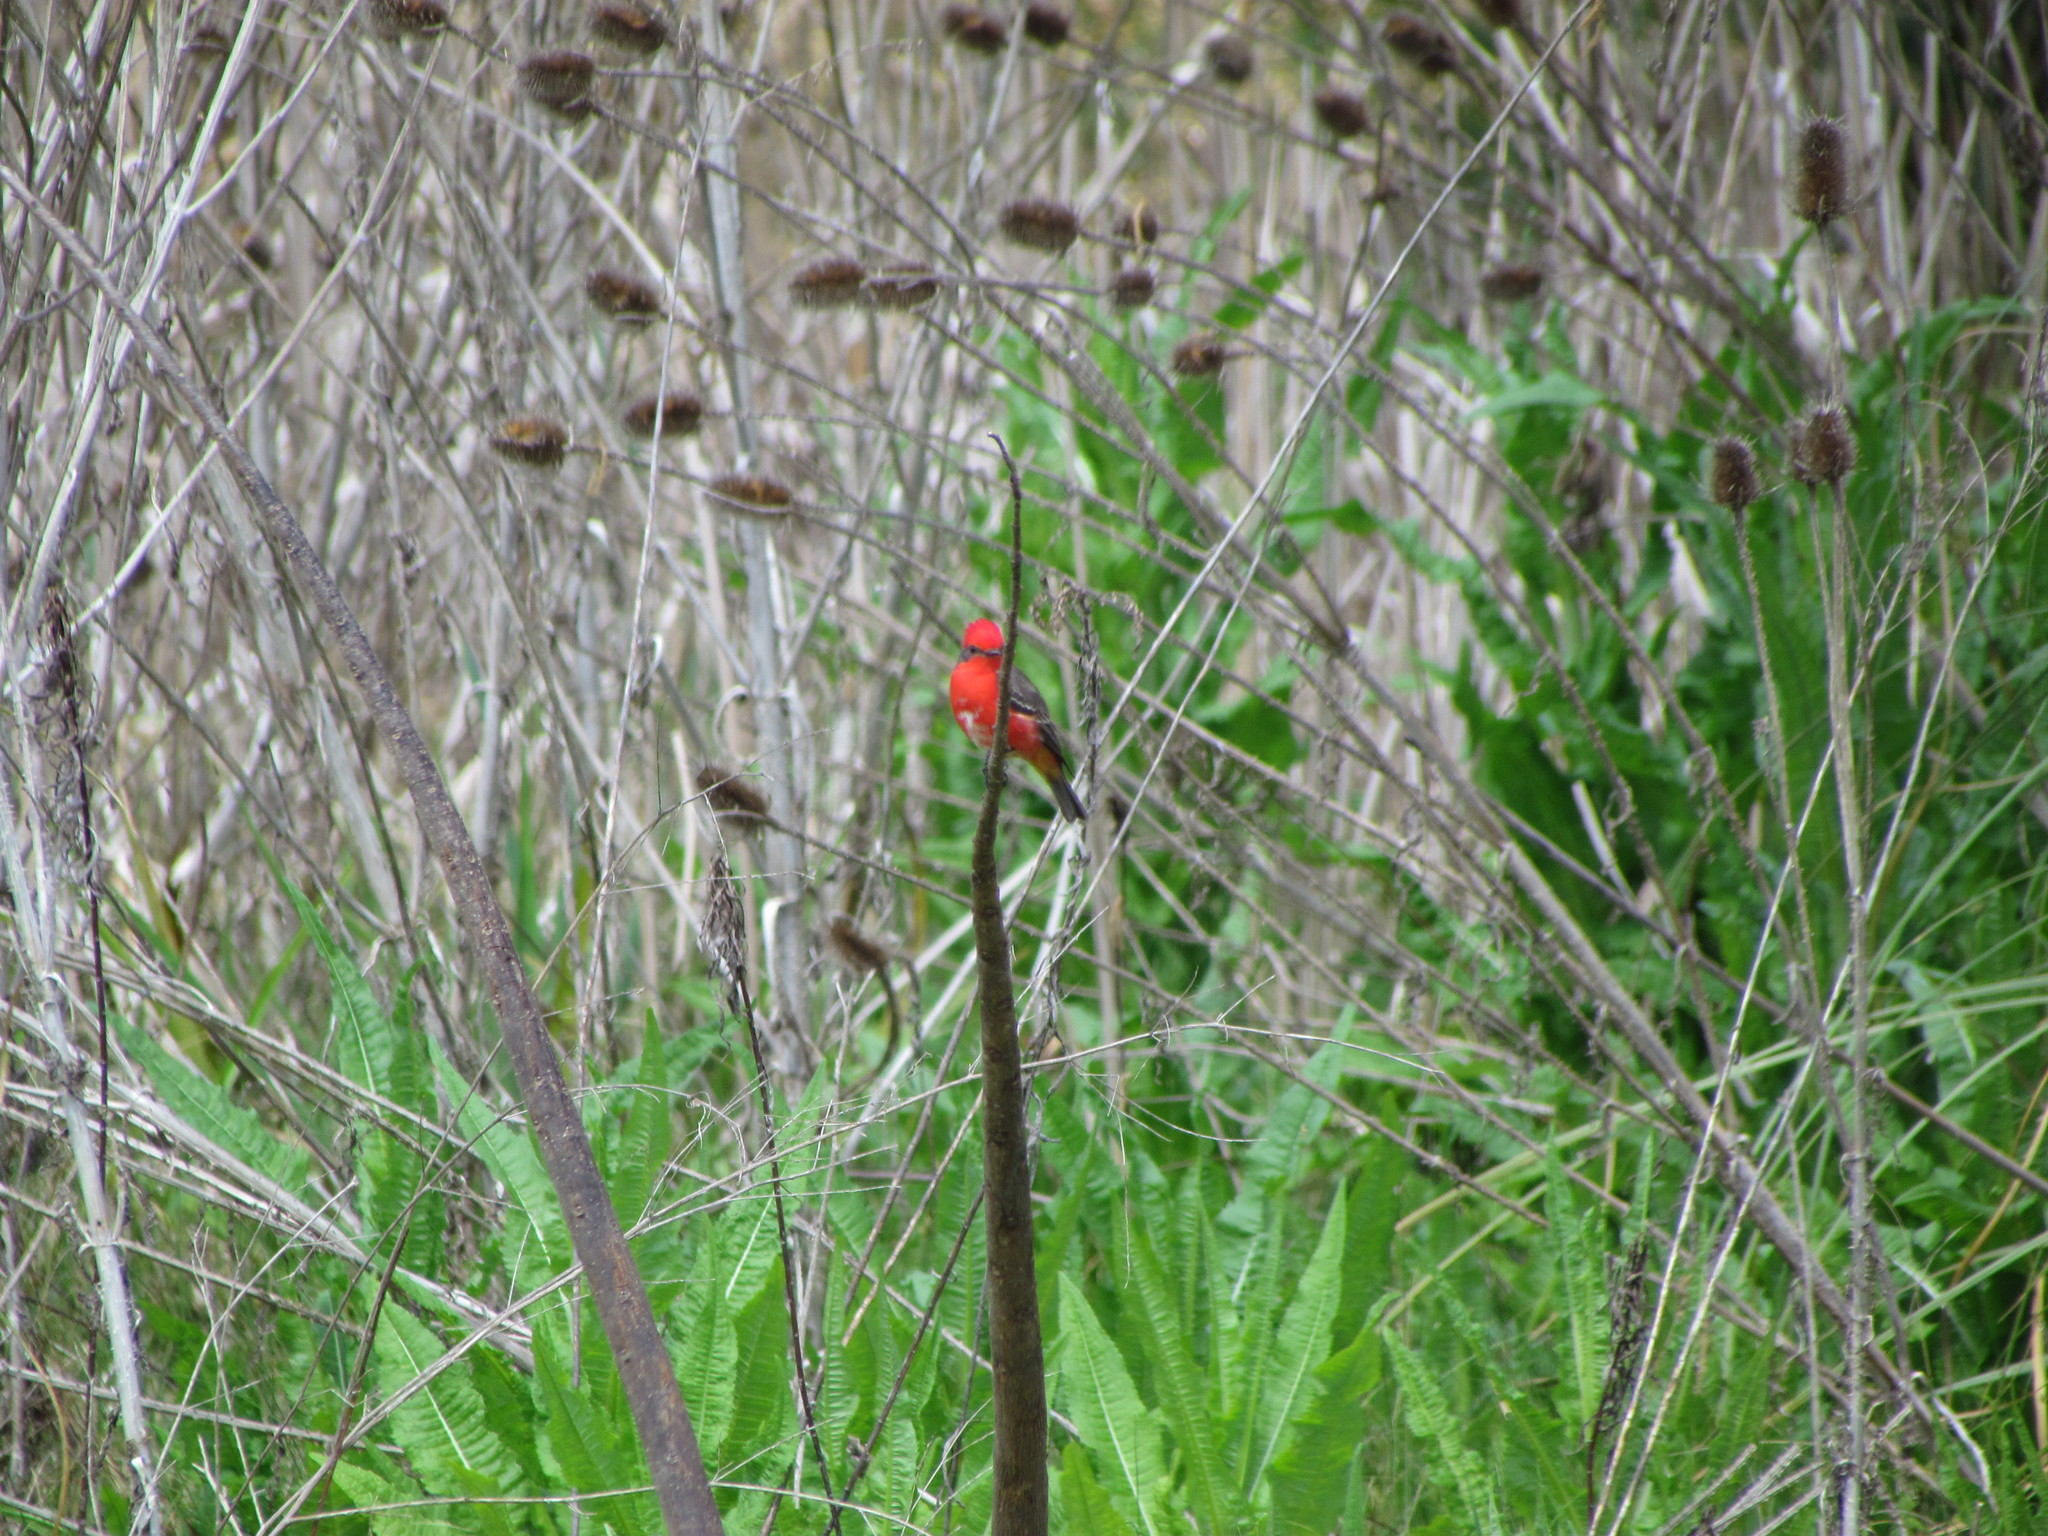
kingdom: Animalia
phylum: Chordata
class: Aves
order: Passeriformes
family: Tyrannidae
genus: Pyrocephalus
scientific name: Pyrocephalus rubinus
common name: Vermilion flycatcher
